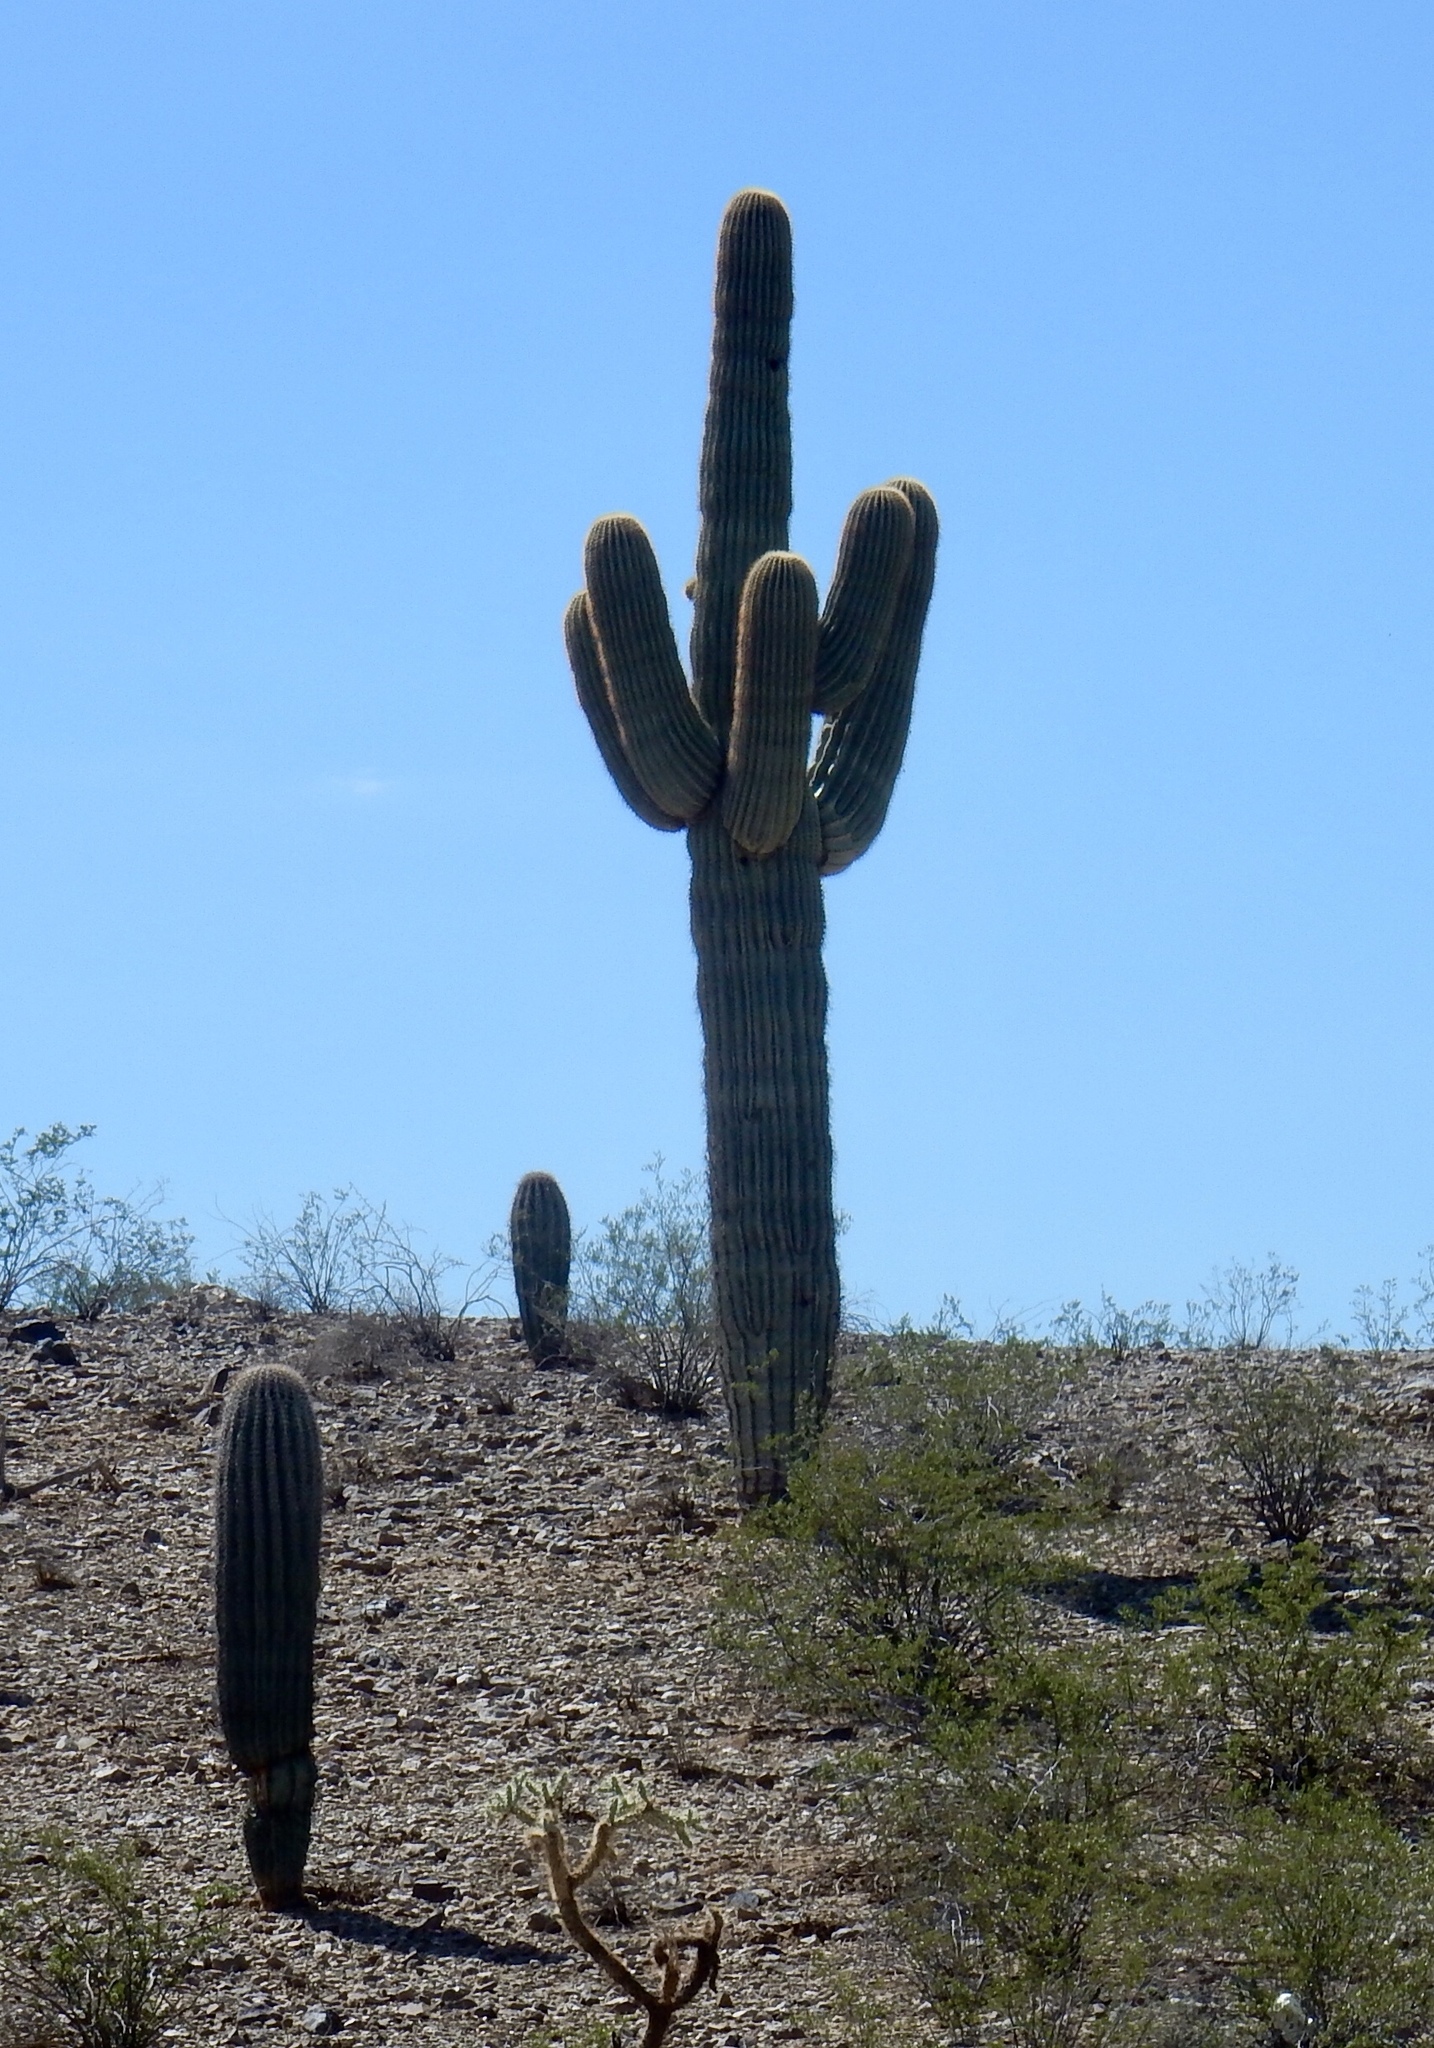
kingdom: Plantae
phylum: Tracheophyta
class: Magnoliopsida
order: Caryophyllales
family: Cactaceae
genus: Carnegiea
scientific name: Carnegiea gigantea
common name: Saguaro
